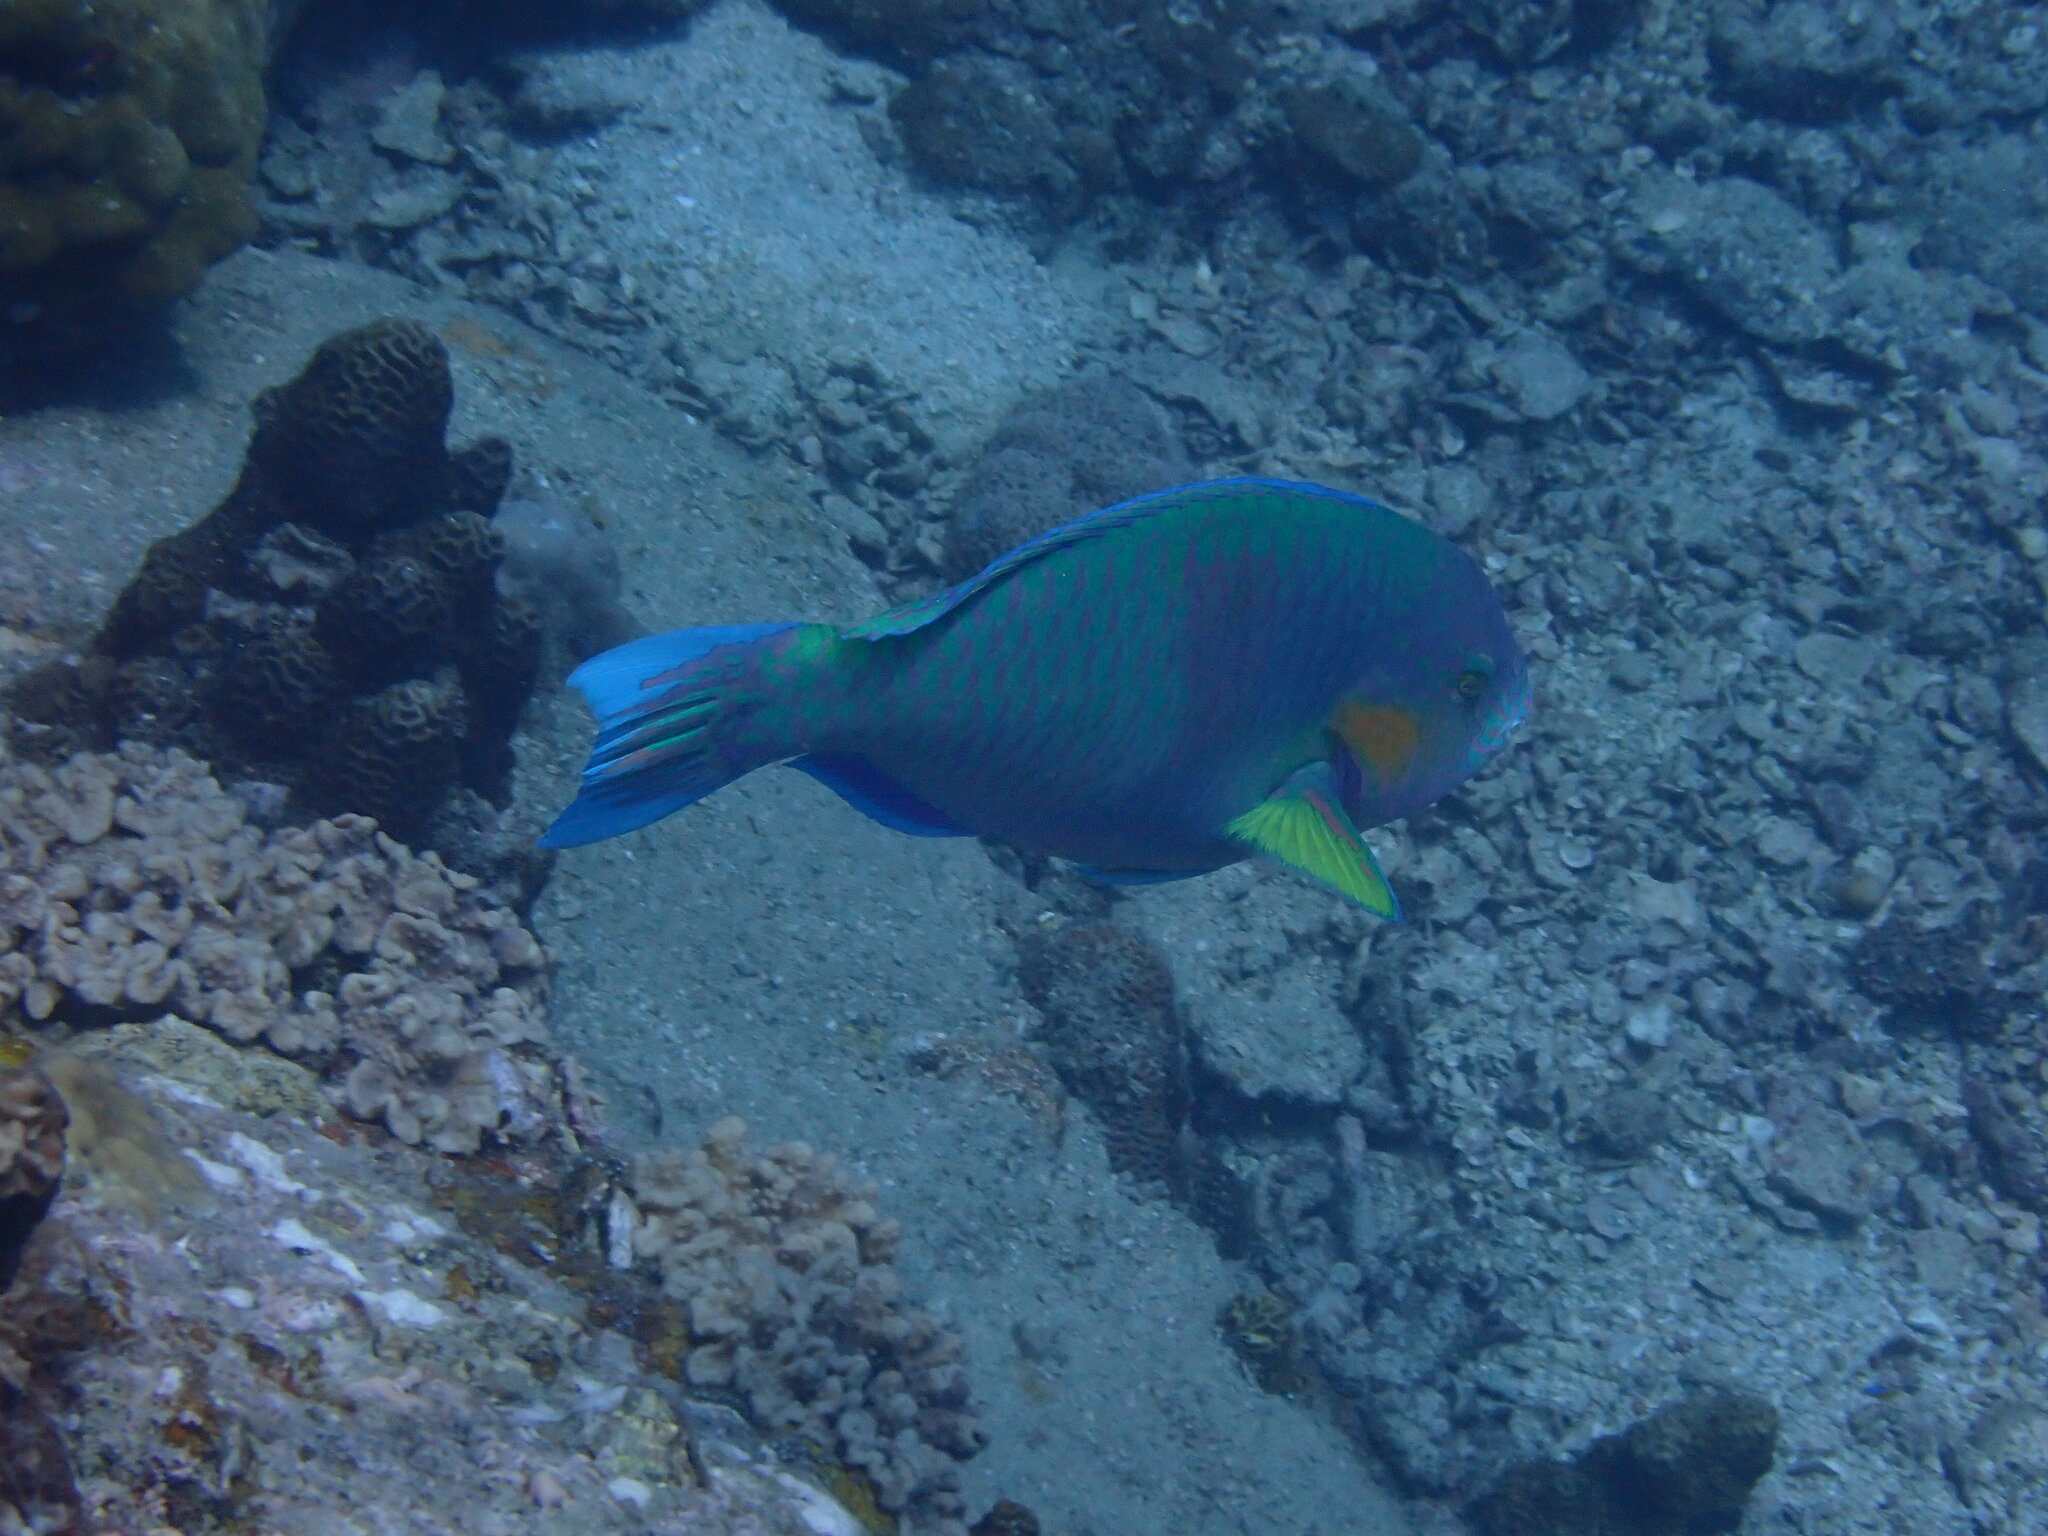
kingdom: Animalia
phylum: Chordata
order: Perciformes
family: Scaridae
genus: Scarus
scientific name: Scarus rivulatus
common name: Surf parrotfish
